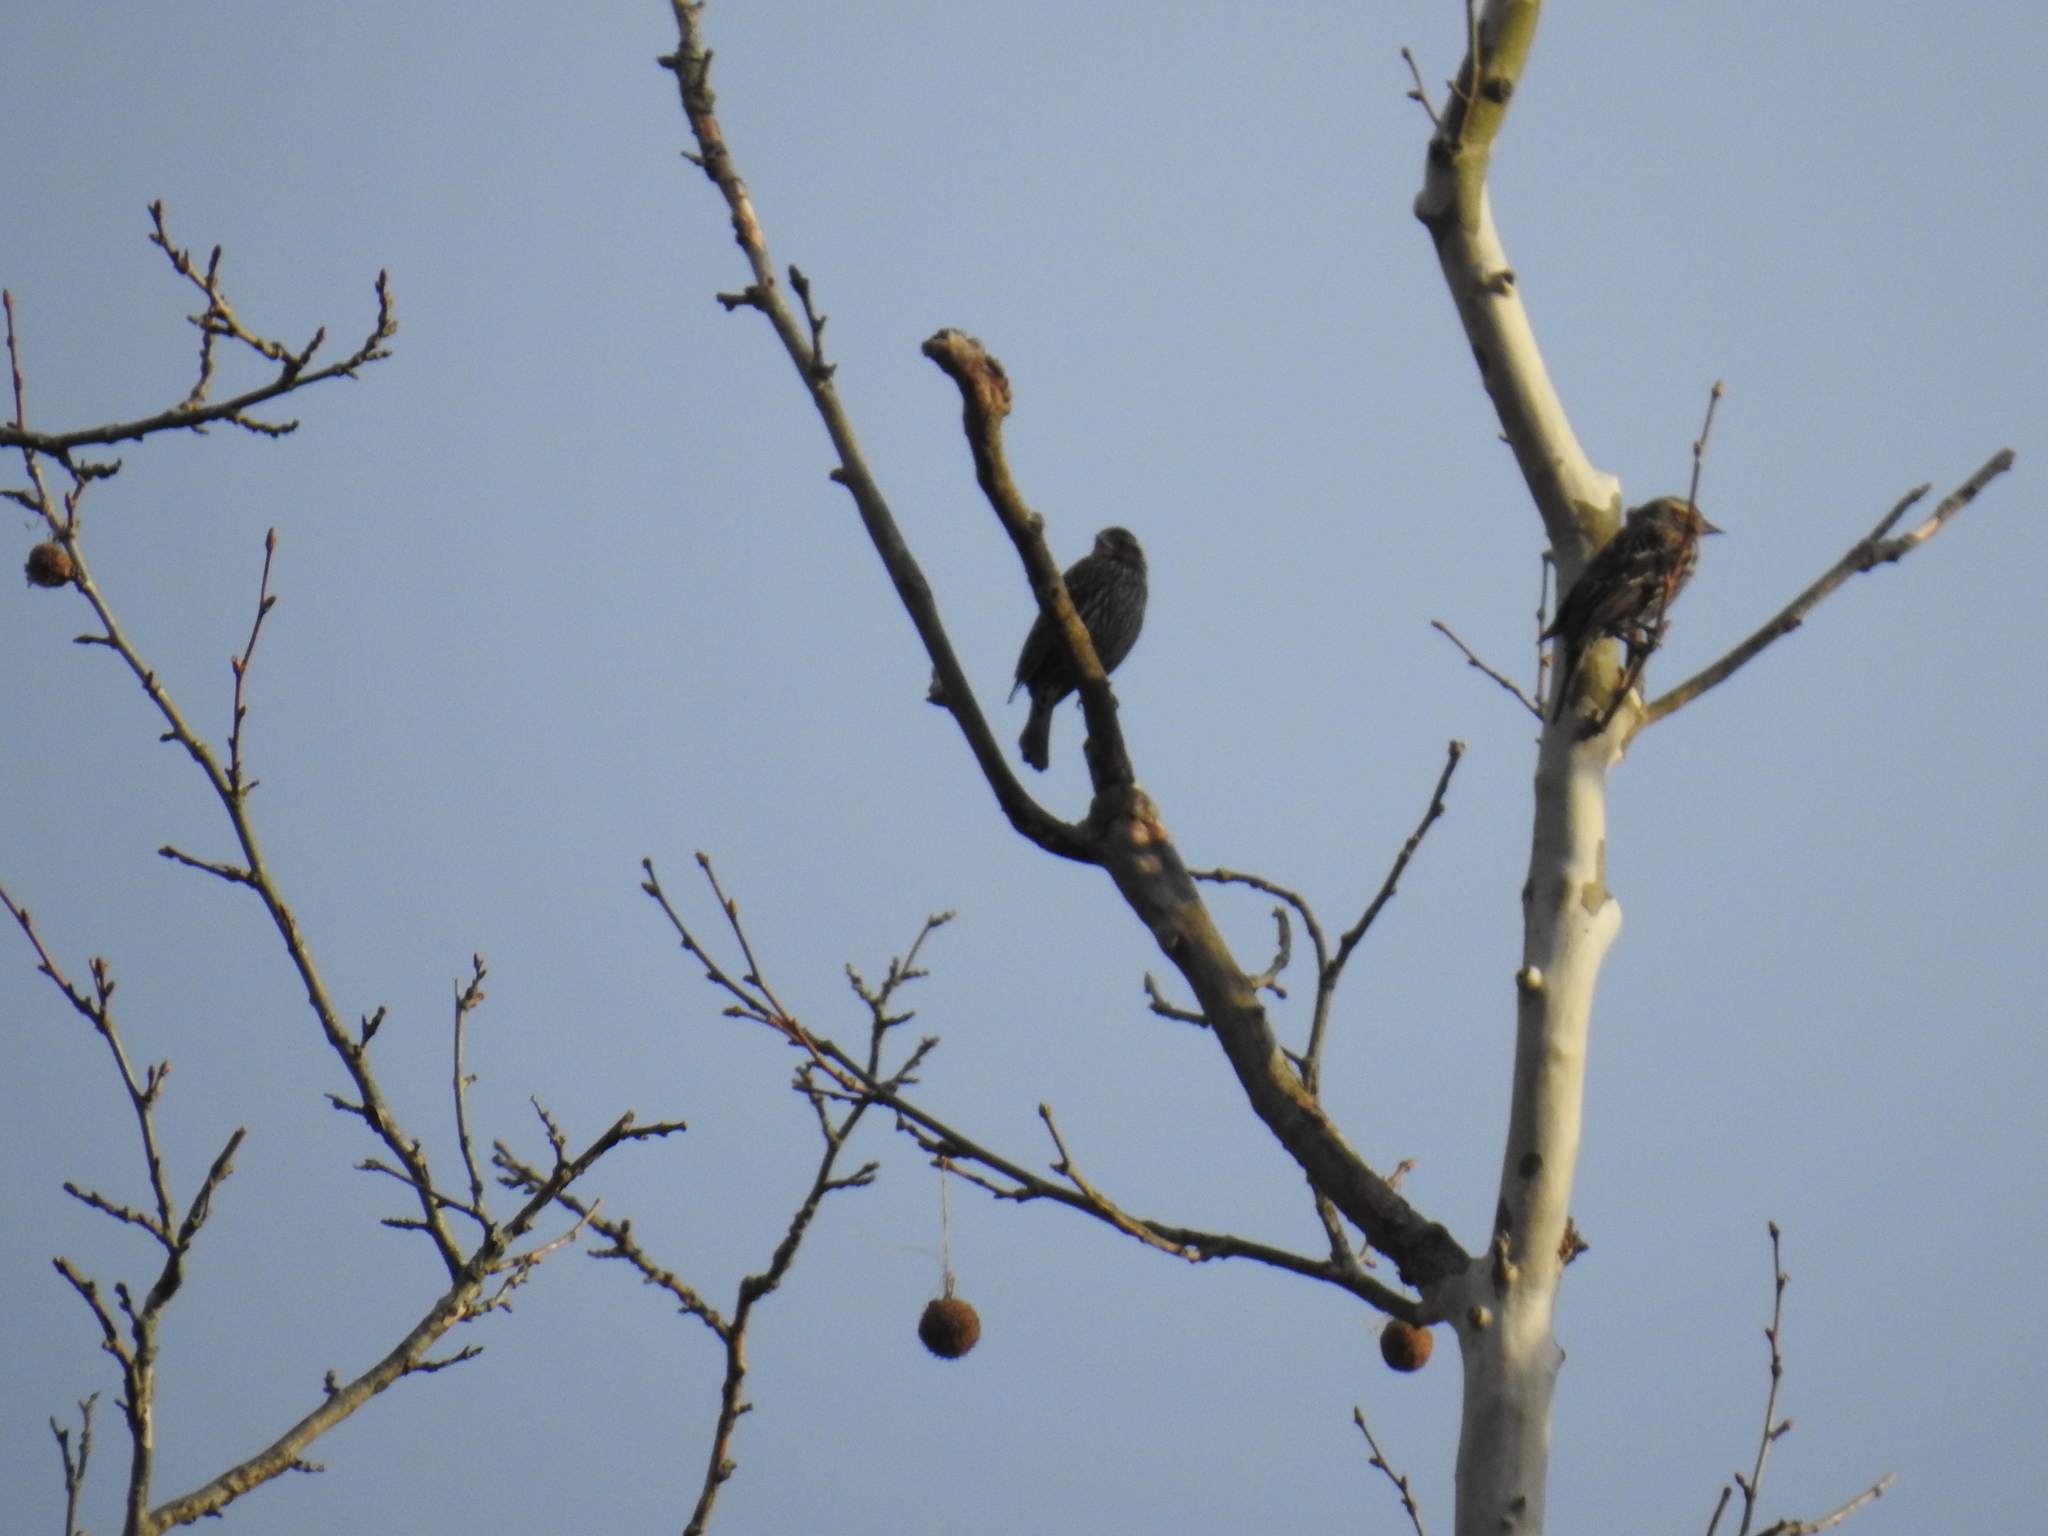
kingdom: Animalia
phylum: Chordata
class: Aves
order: Passeriformes
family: Icteridae
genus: Agelaius
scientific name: Agelaius phoeniceus
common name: Red-winged blackbird
